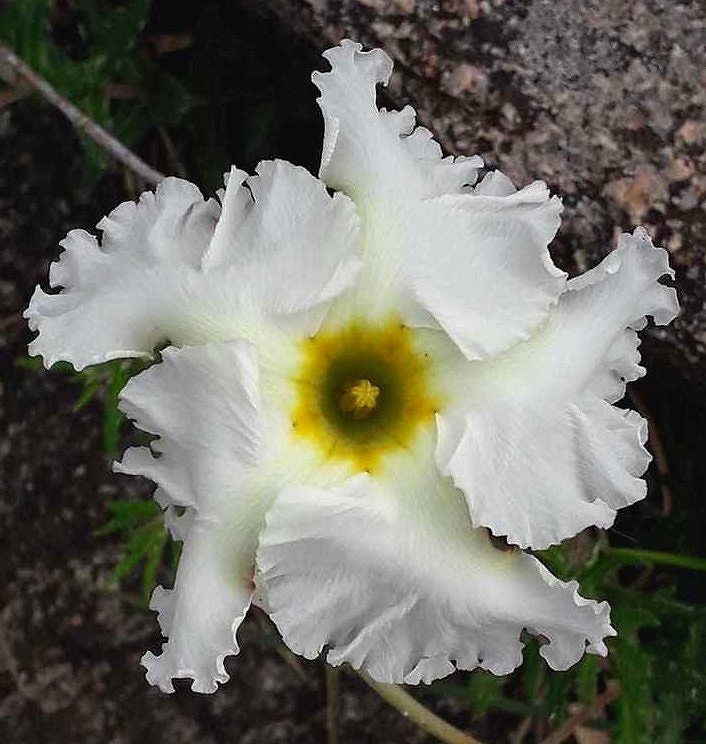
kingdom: Plantae
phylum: Tracheophyta
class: Magnoliopsida
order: Gentianales
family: Apocynaceae
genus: Mandevilla
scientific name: Mandevilla petraea
